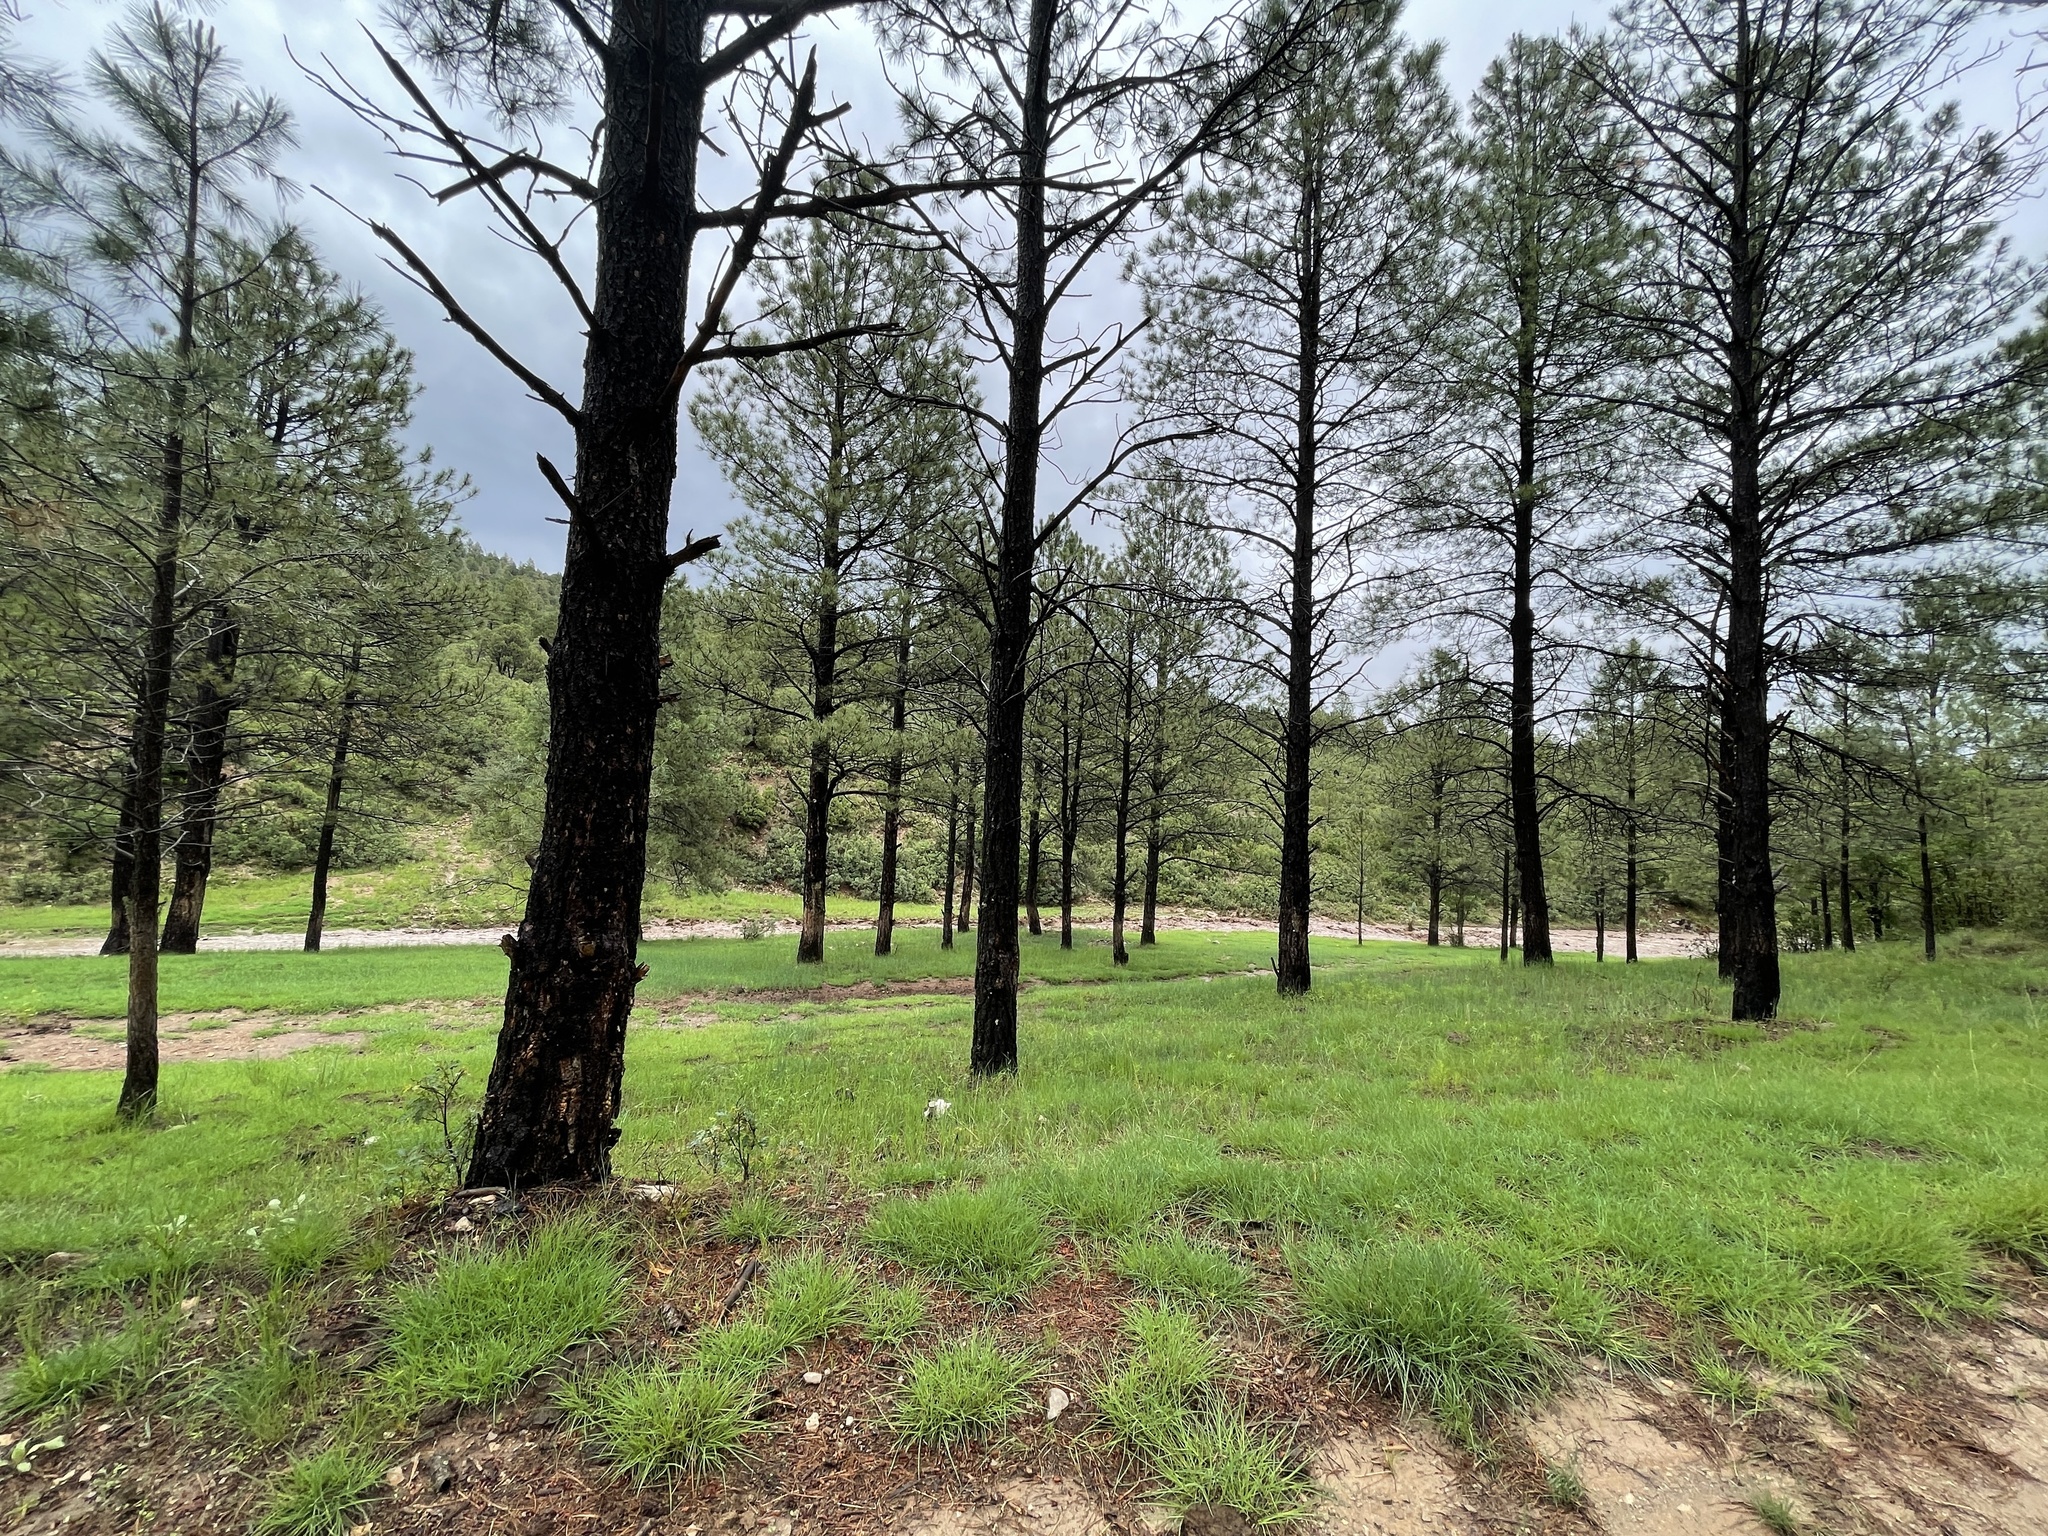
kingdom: Plantae
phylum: Tracheophyta
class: Pinopsida
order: Pinales
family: Pinaceae
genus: Pinus
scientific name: Pinus ponderosa
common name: Western yellow-pine
